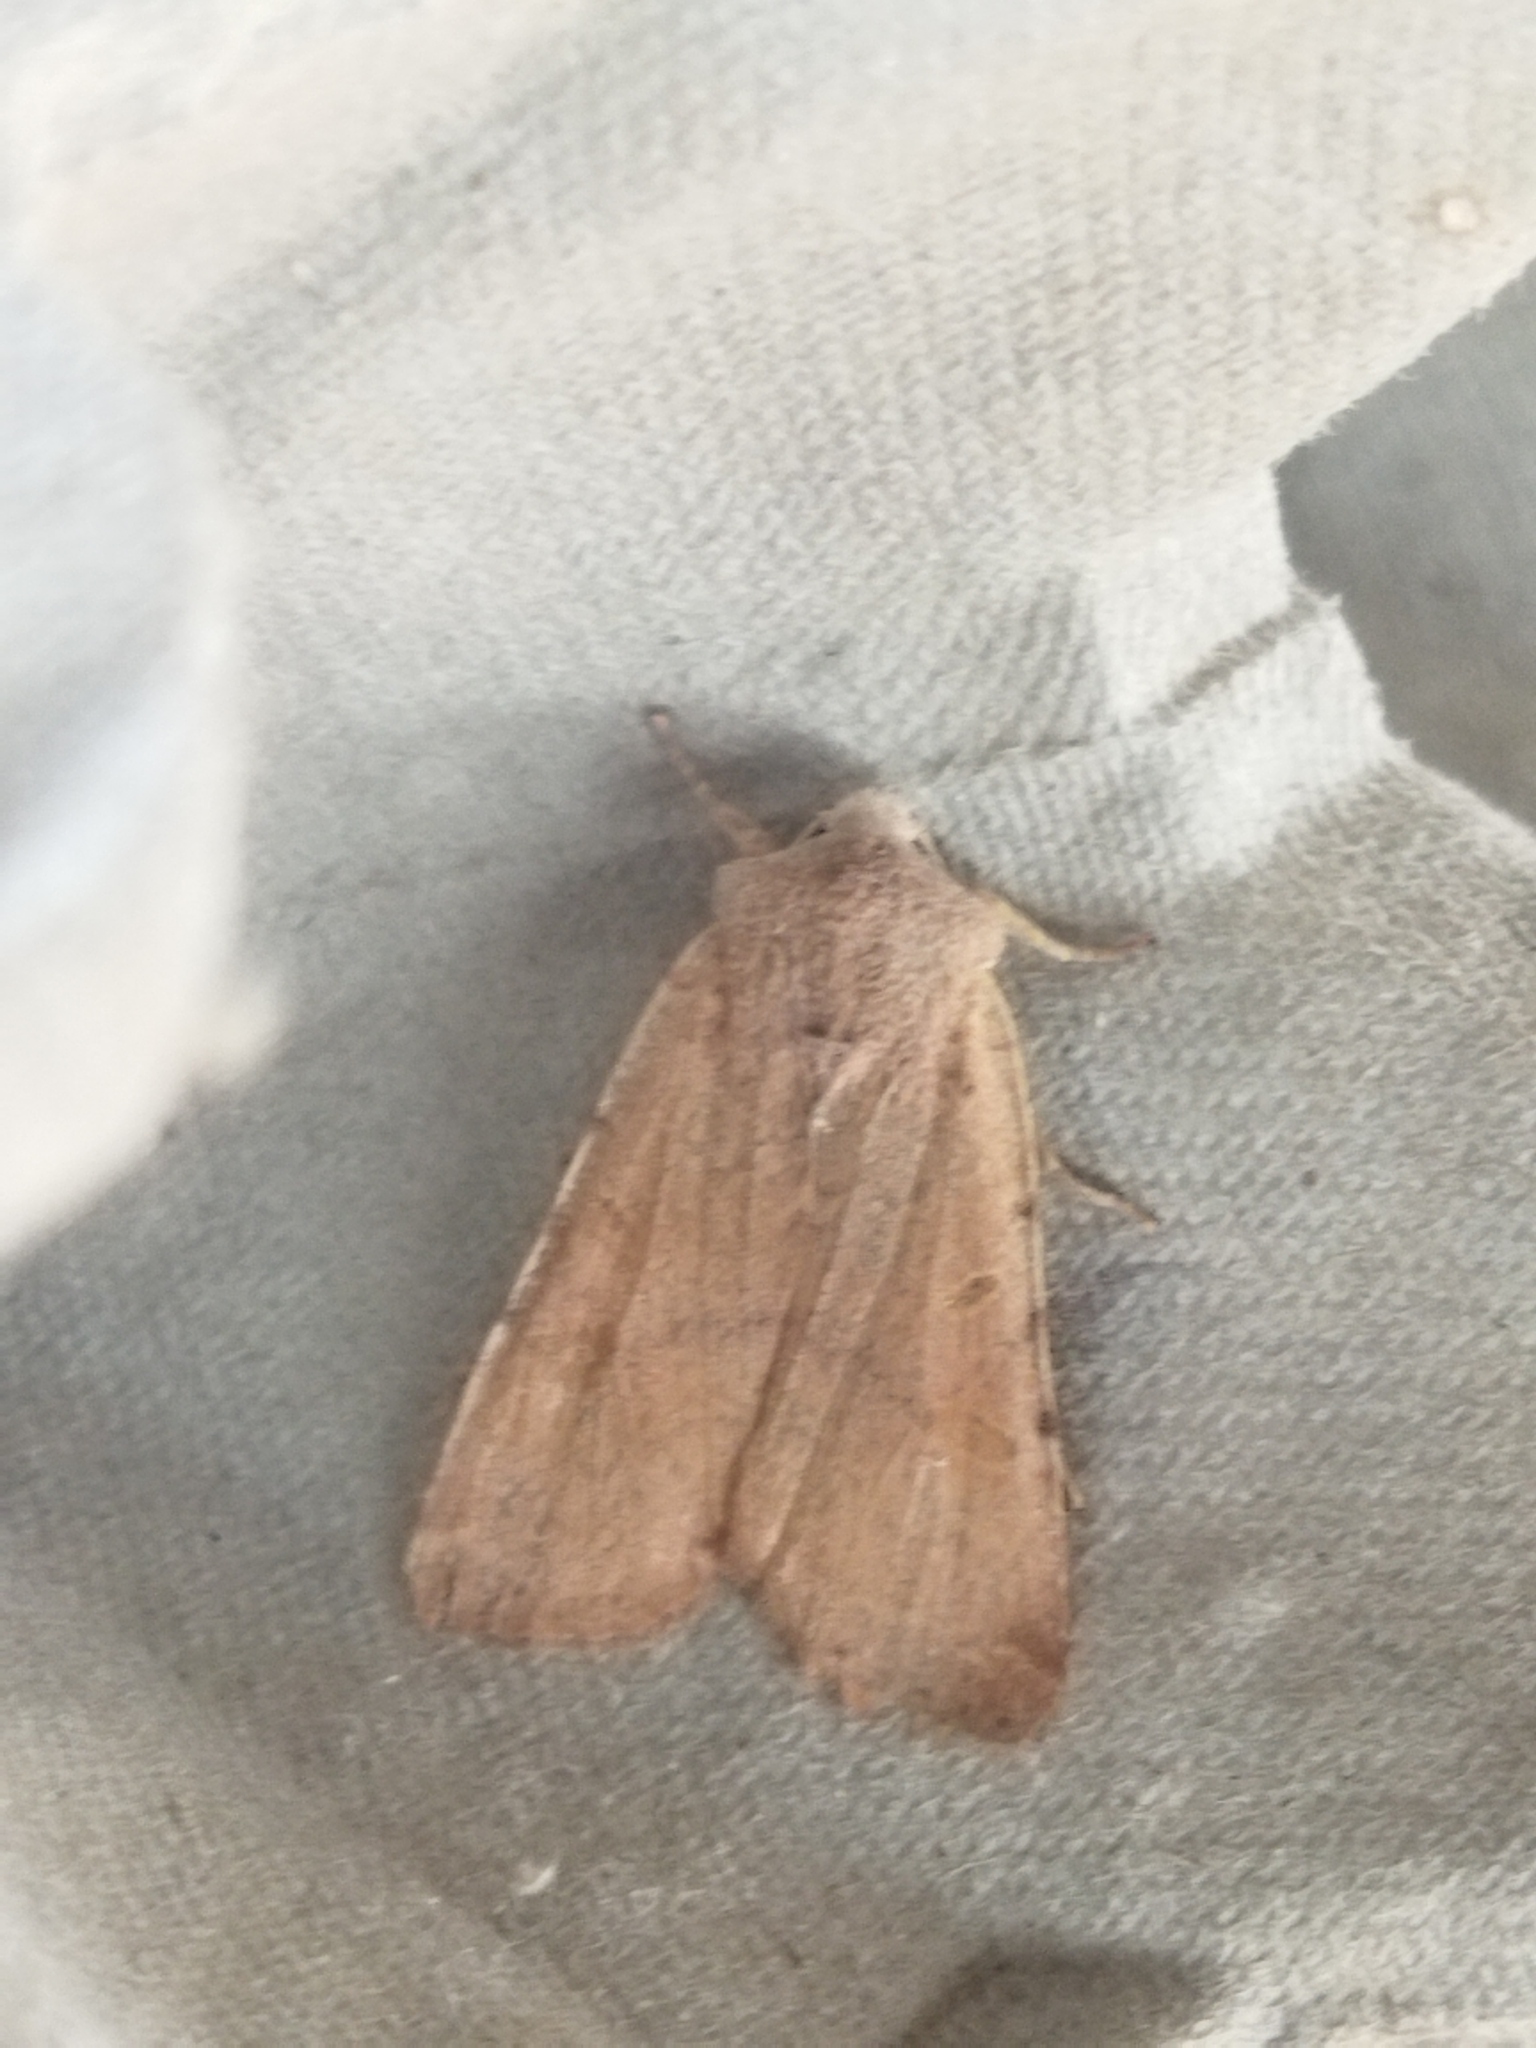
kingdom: Animalia
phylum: Arthropoda
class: Insecta
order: Lepidoptera
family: Noctuidae
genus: Agrochola
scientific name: Agrochola lychnidis
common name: Beaded chestnut
